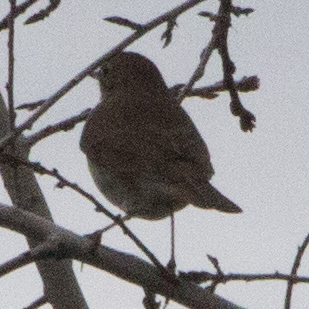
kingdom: Animalia
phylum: Chordata
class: Aves
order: Passeriformes
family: Turdidae
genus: Catharus
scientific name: Catharus guttatus
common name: Hermit thrush
